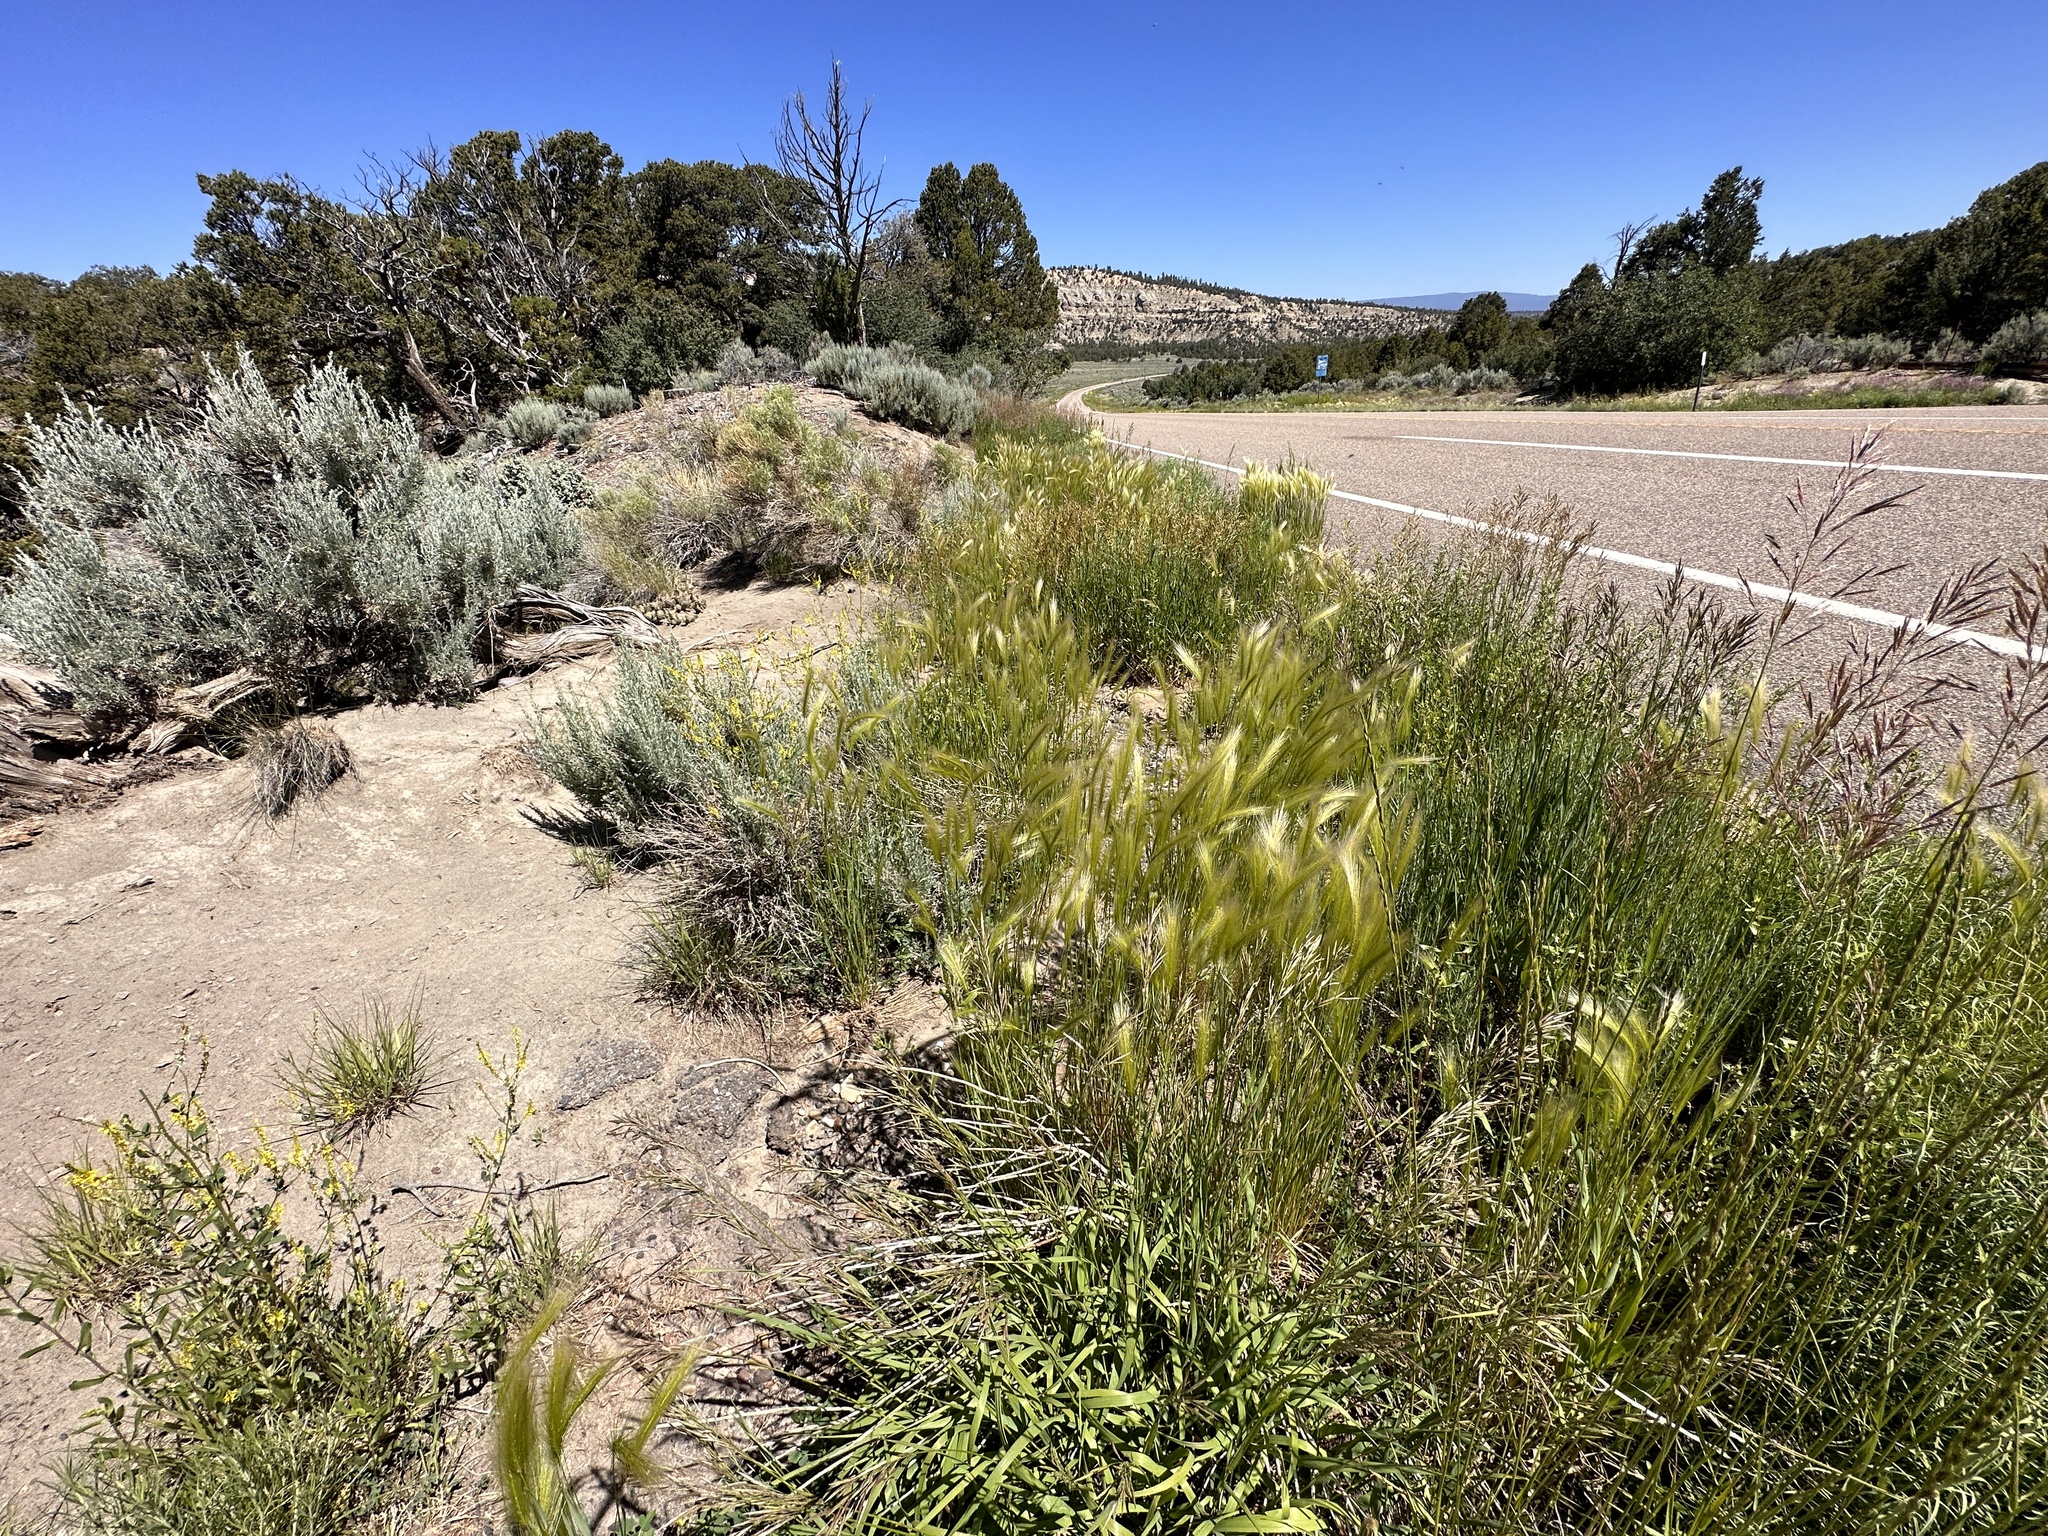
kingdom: Plantae
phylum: Tracheophyta
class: Liliopsida
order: Poales
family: Poaceae
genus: Hordeum
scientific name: Hordeum jubatum
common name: Foxtail barley
